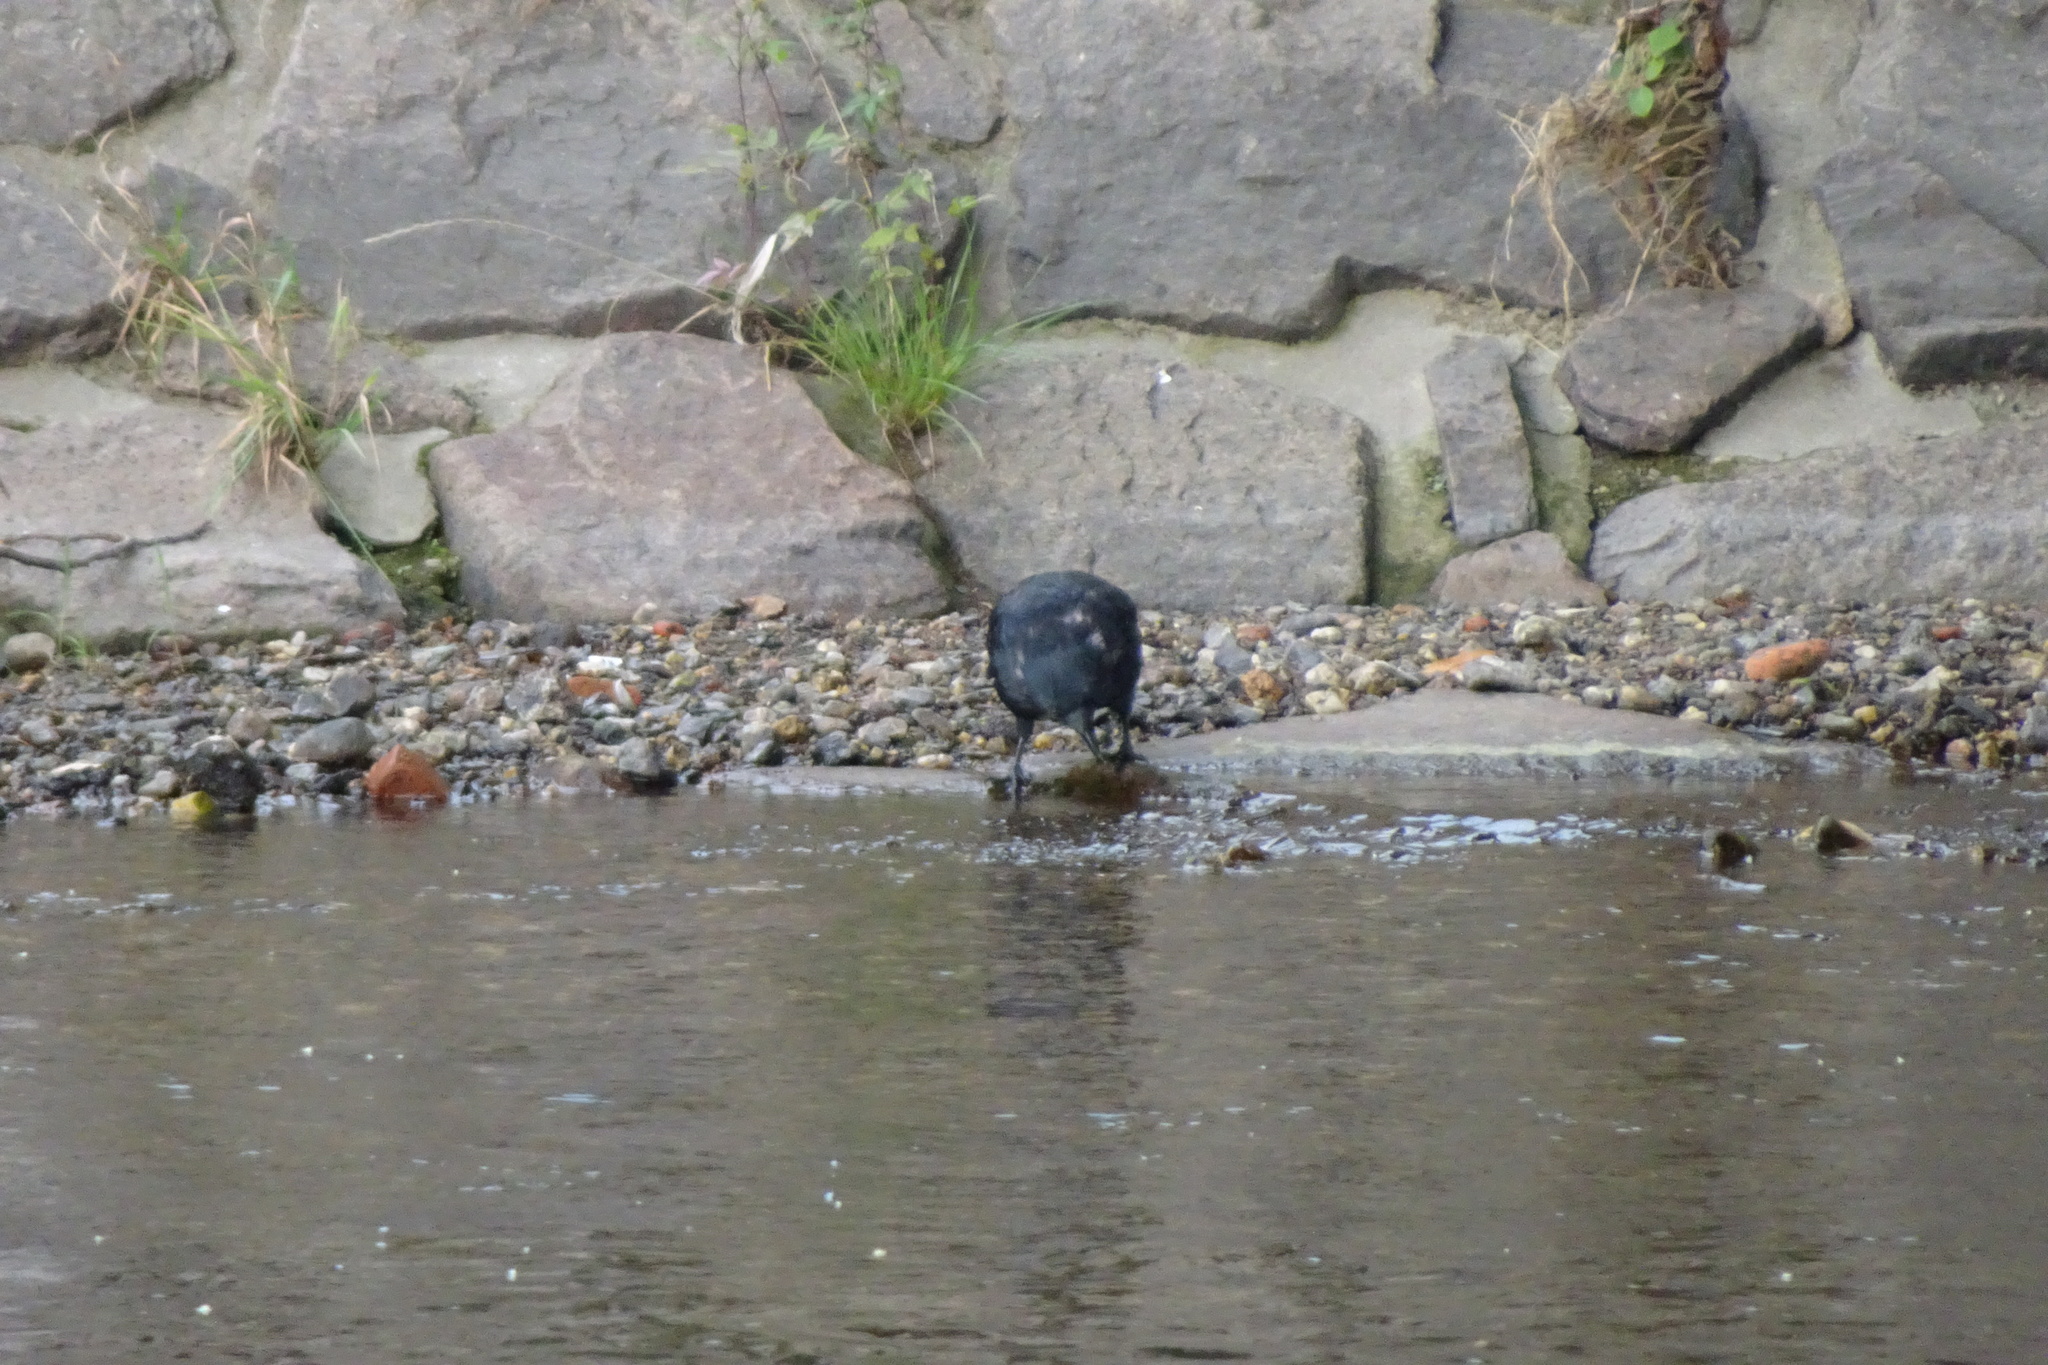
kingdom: Animalia
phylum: Chordata
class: Aves
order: Passeriformes
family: Corvidae
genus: Corvus
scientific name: Corvus corone
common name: Carrion crow
